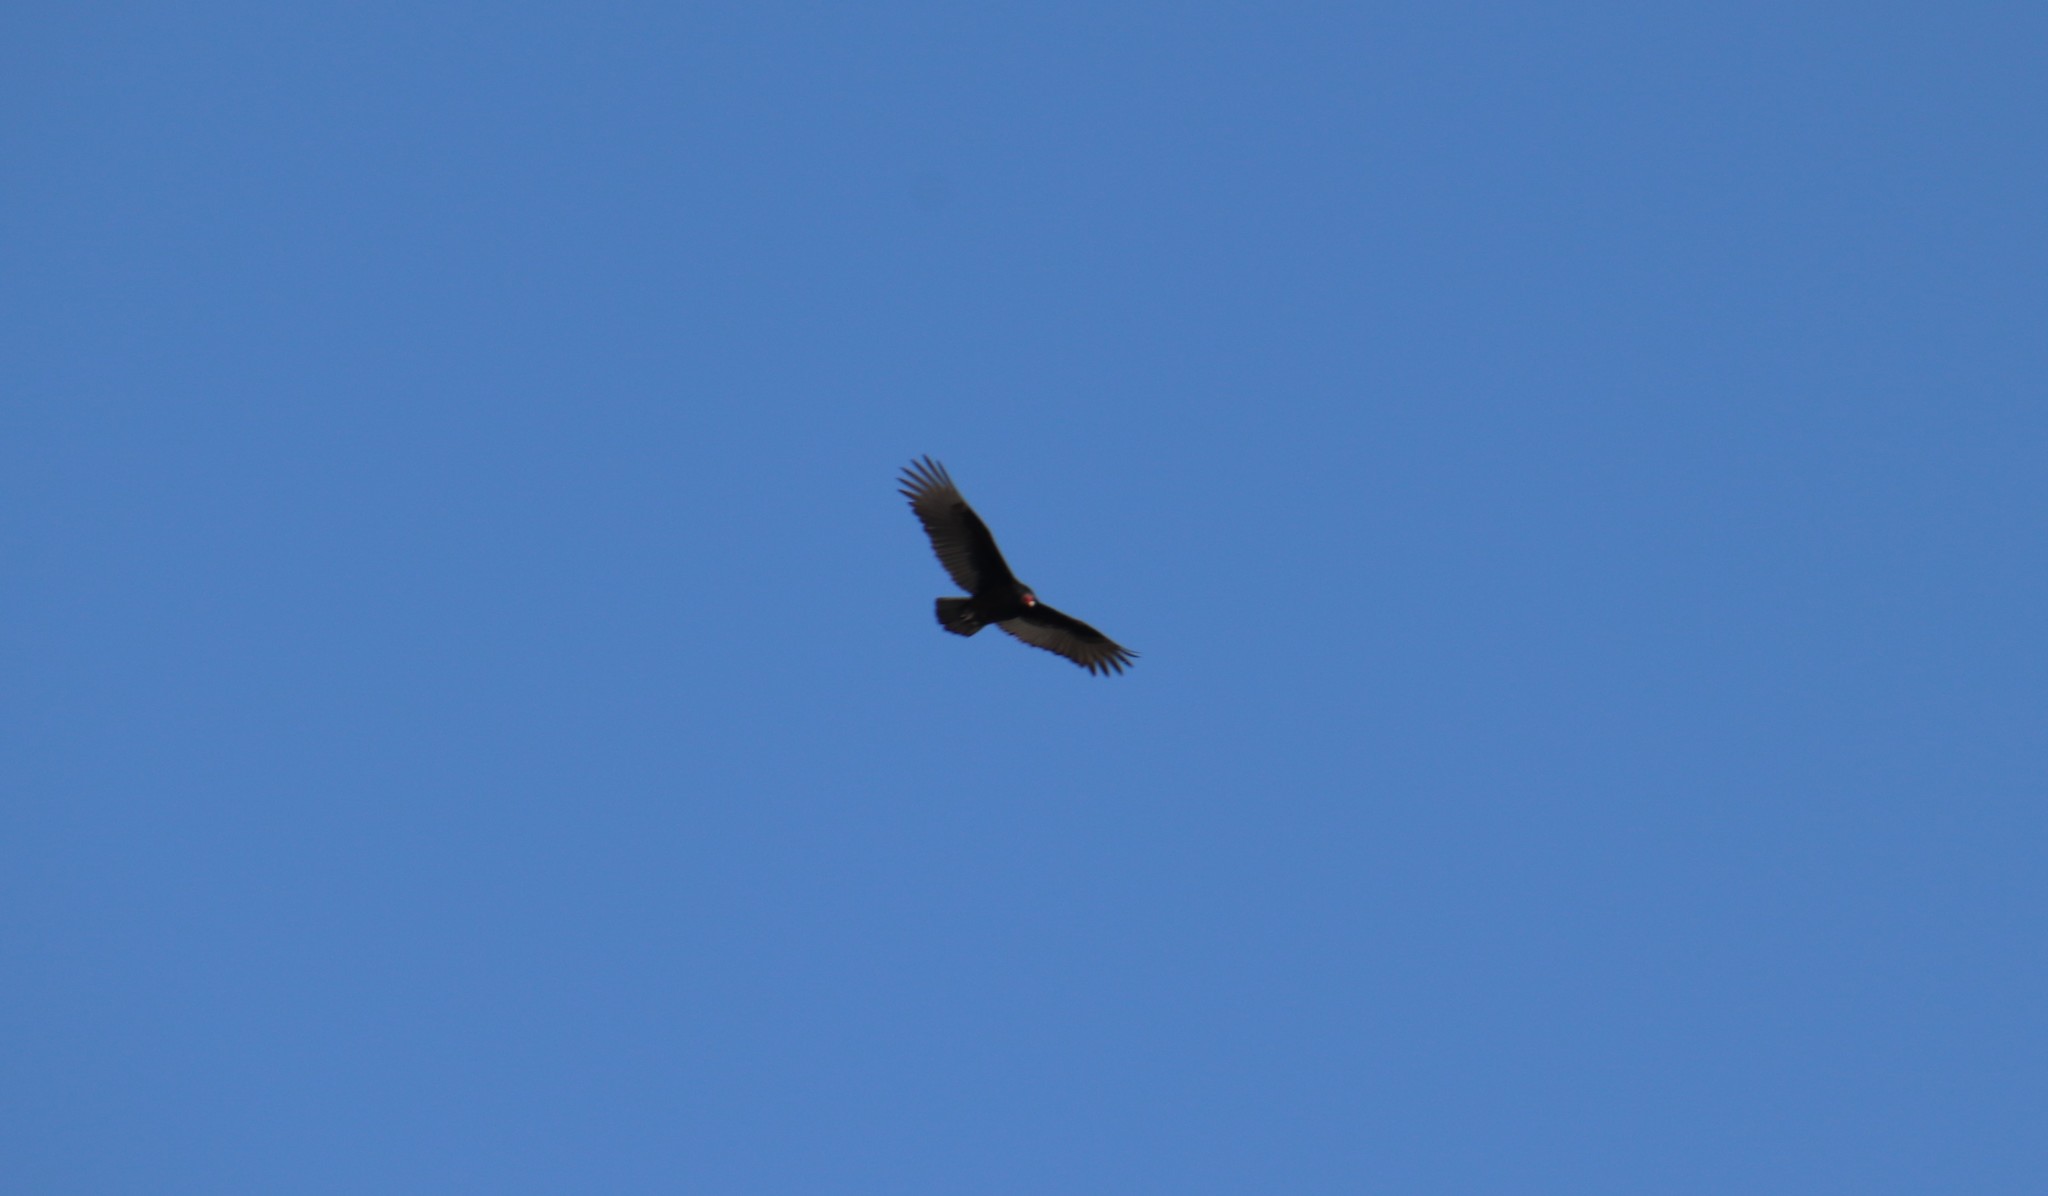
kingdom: Animalia
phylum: Chordata
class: Aves
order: Accipitriformes
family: Cathartidae
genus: Cathartes
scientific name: Cathartes aura
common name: Turkey vulture
